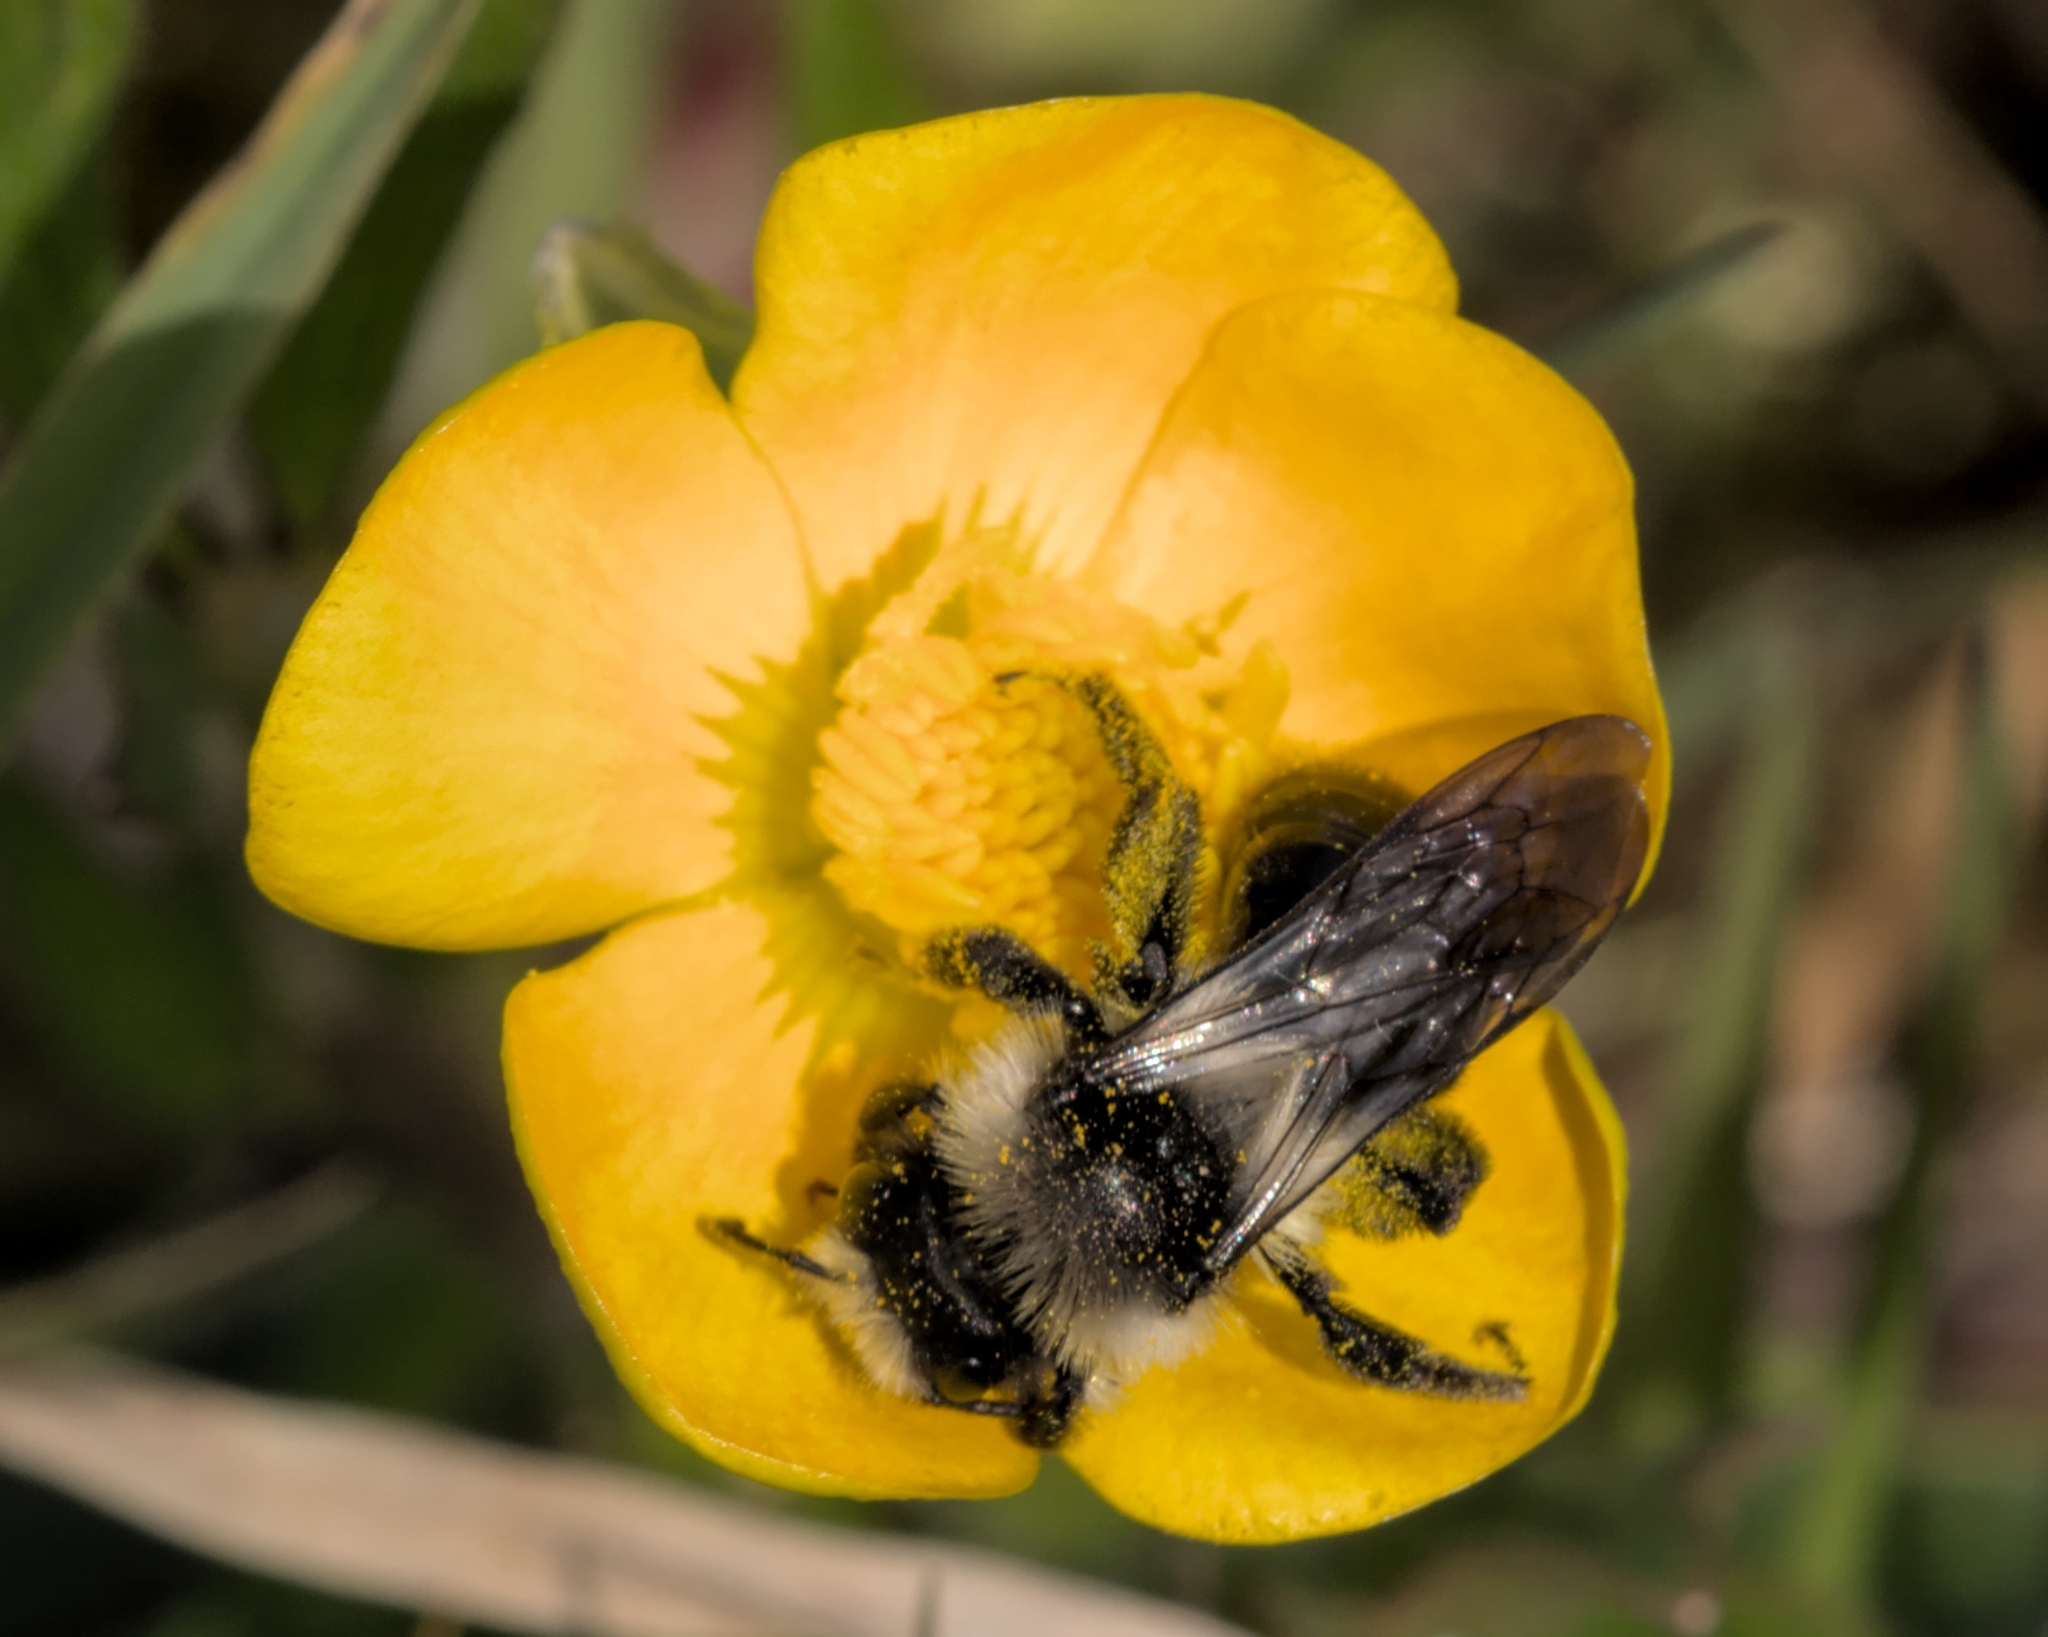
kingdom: Animalia
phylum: Arthropoda
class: Insecta
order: Hymenoptera
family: Andrenidae
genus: Andrena
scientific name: Andrena cineraria
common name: Ashy mining bee
